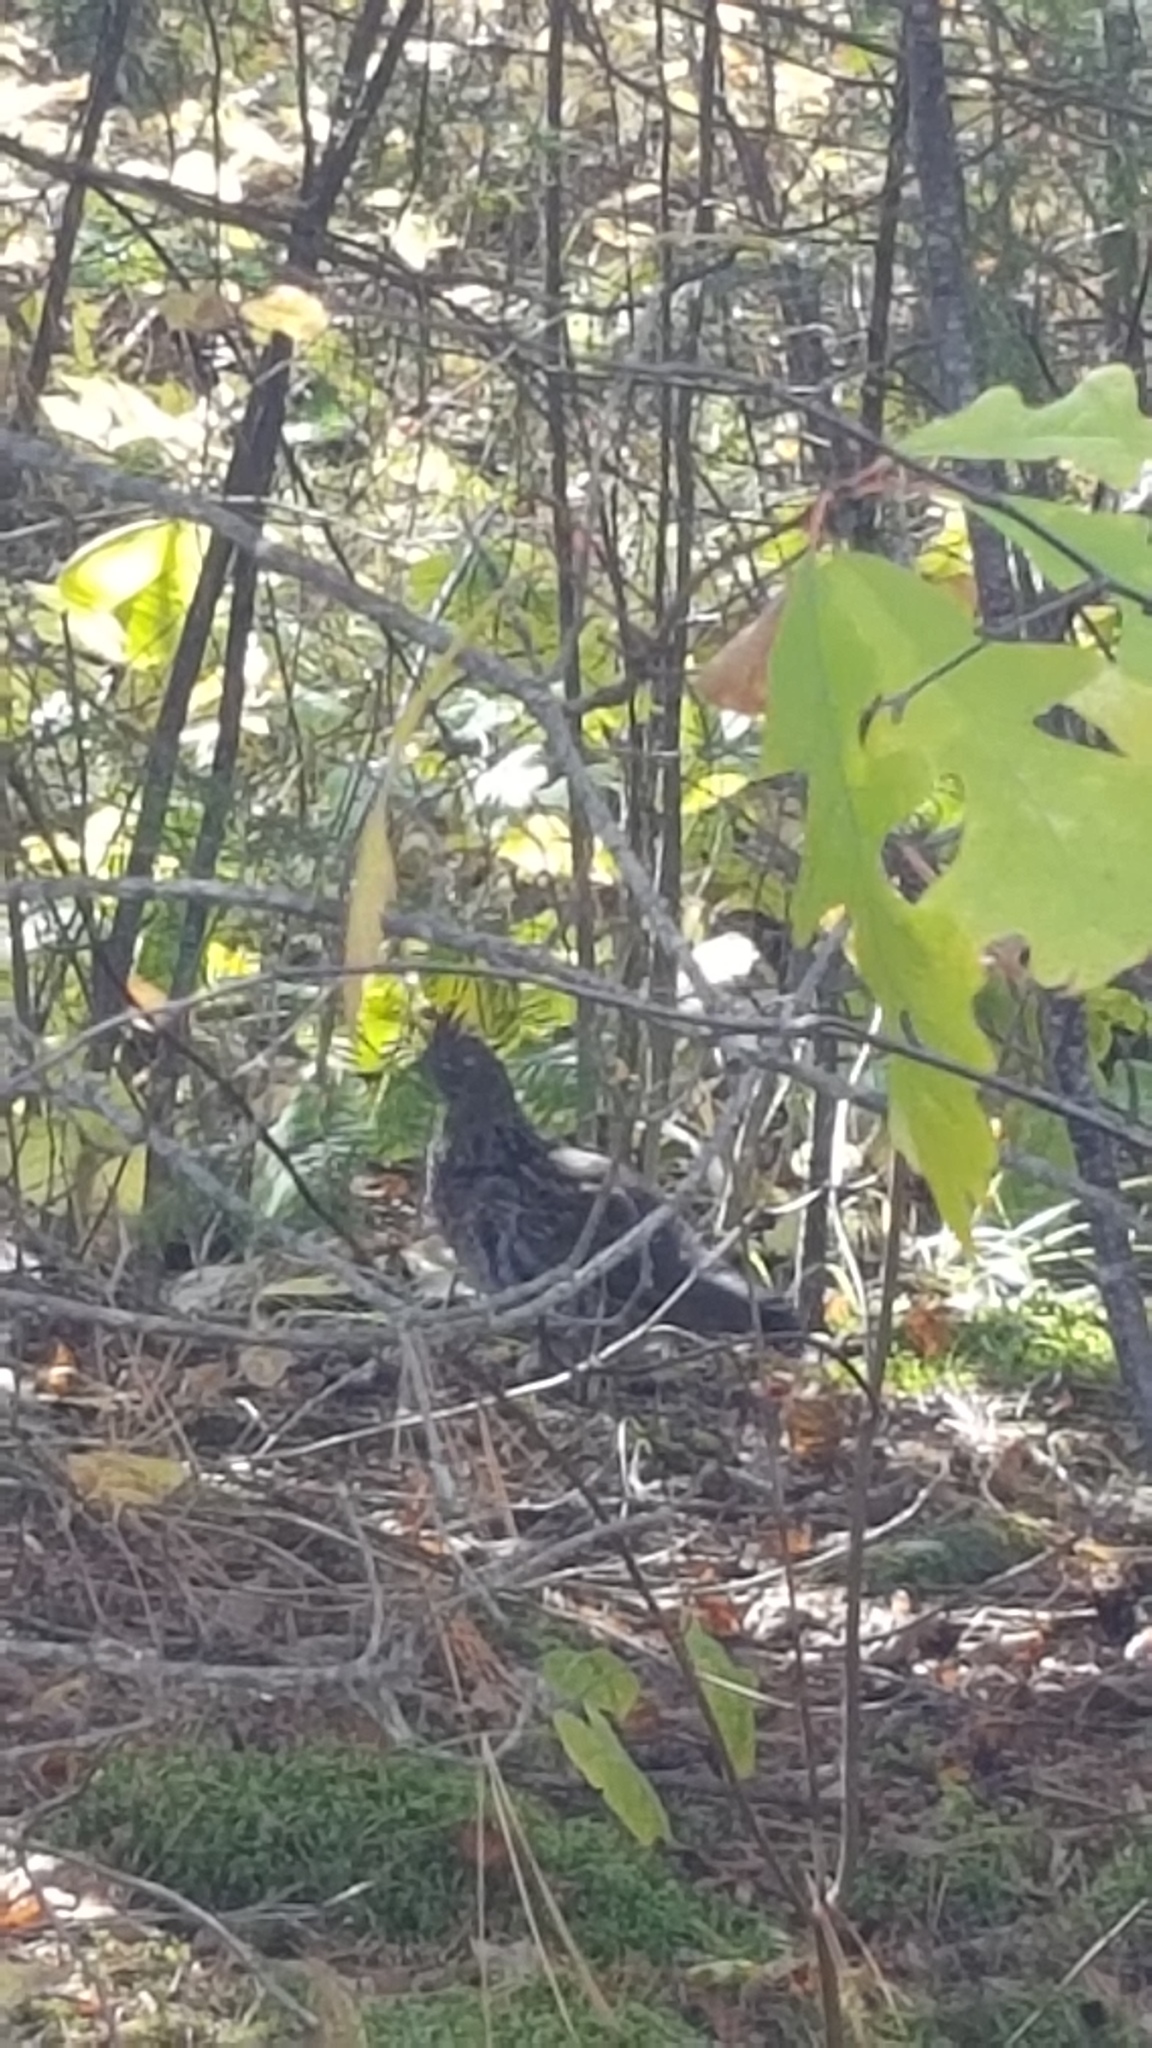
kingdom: Animalia
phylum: Chordata
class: Aves
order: Galliformes
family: Phasianidae
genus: Bonasa
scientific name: Bonasa umbellus
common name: Ruffed grouse
